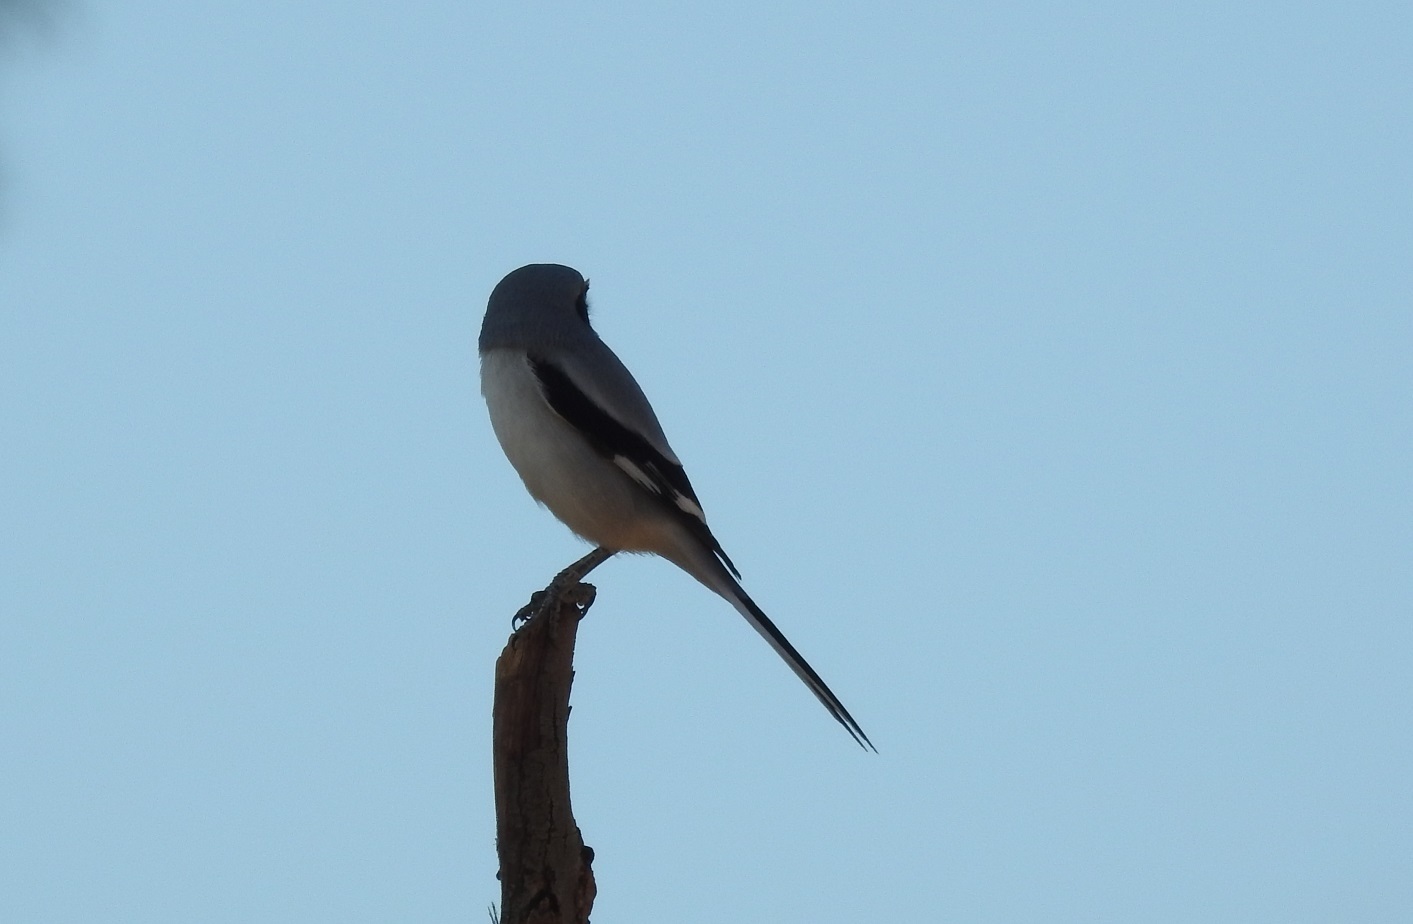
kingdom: Animalia
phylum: Chordata
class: Aves
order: Passeriformes
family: Laniidae
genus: Lanius
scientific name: Lanius excubitor
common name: Great grey shrike
